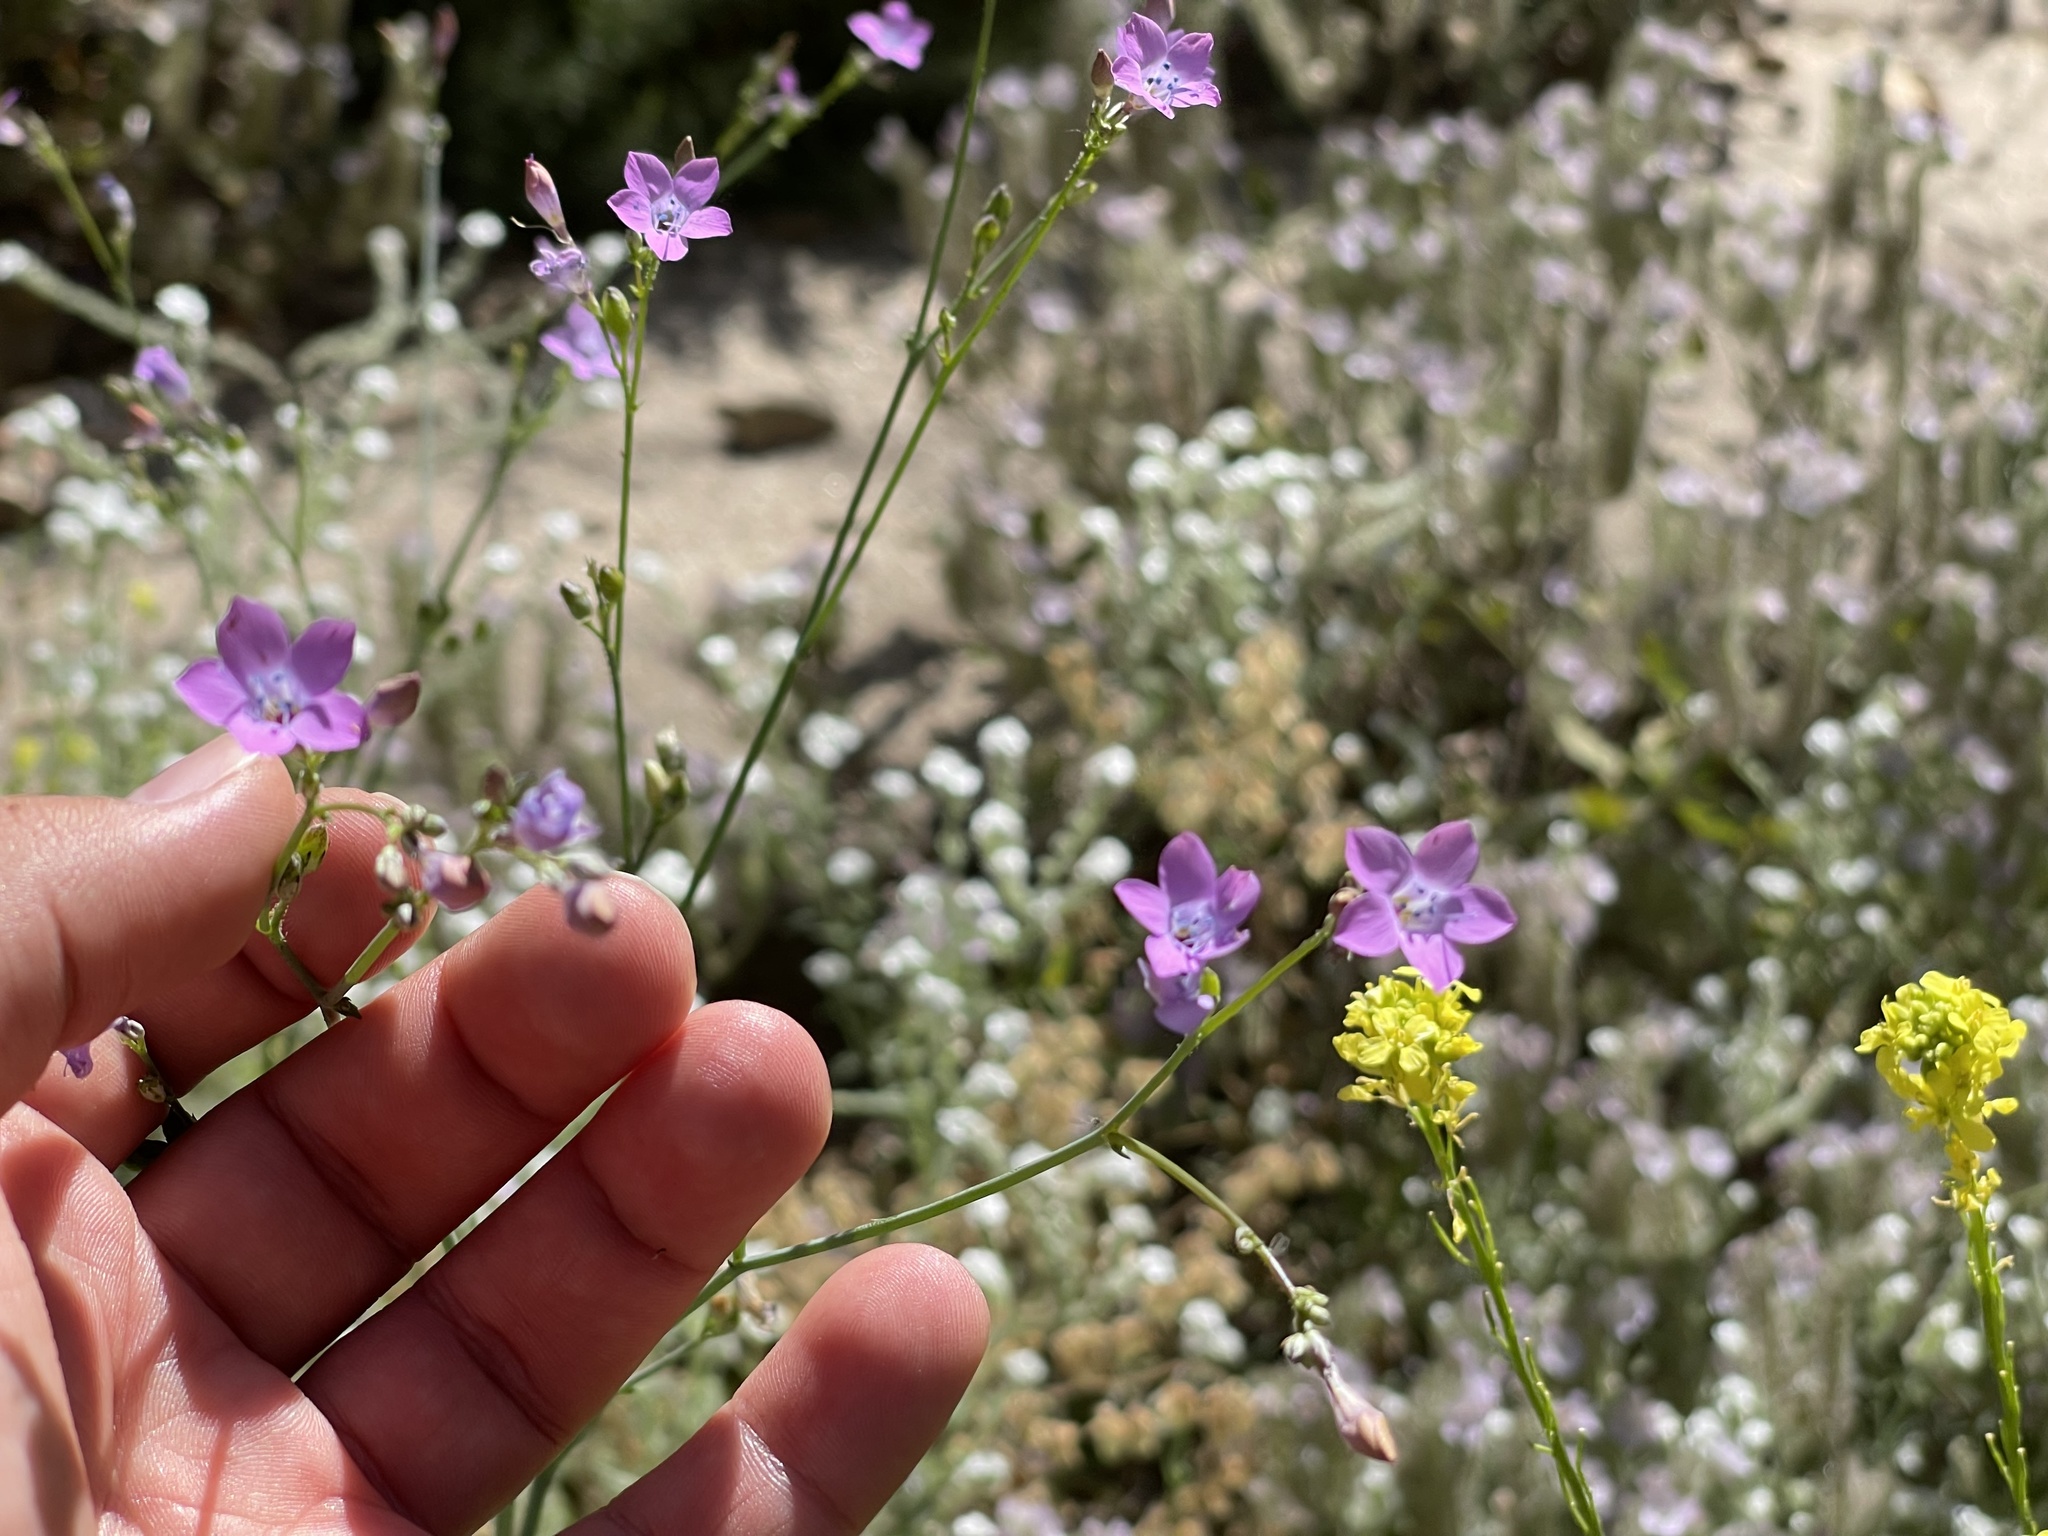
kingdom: Plantae
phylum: Tracheophyta
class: Magnoliopsida
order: Ericales
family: Polemoniaceae
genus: Saltugilia
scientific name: Saltugilia splendens
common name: Grinnell's gilia
